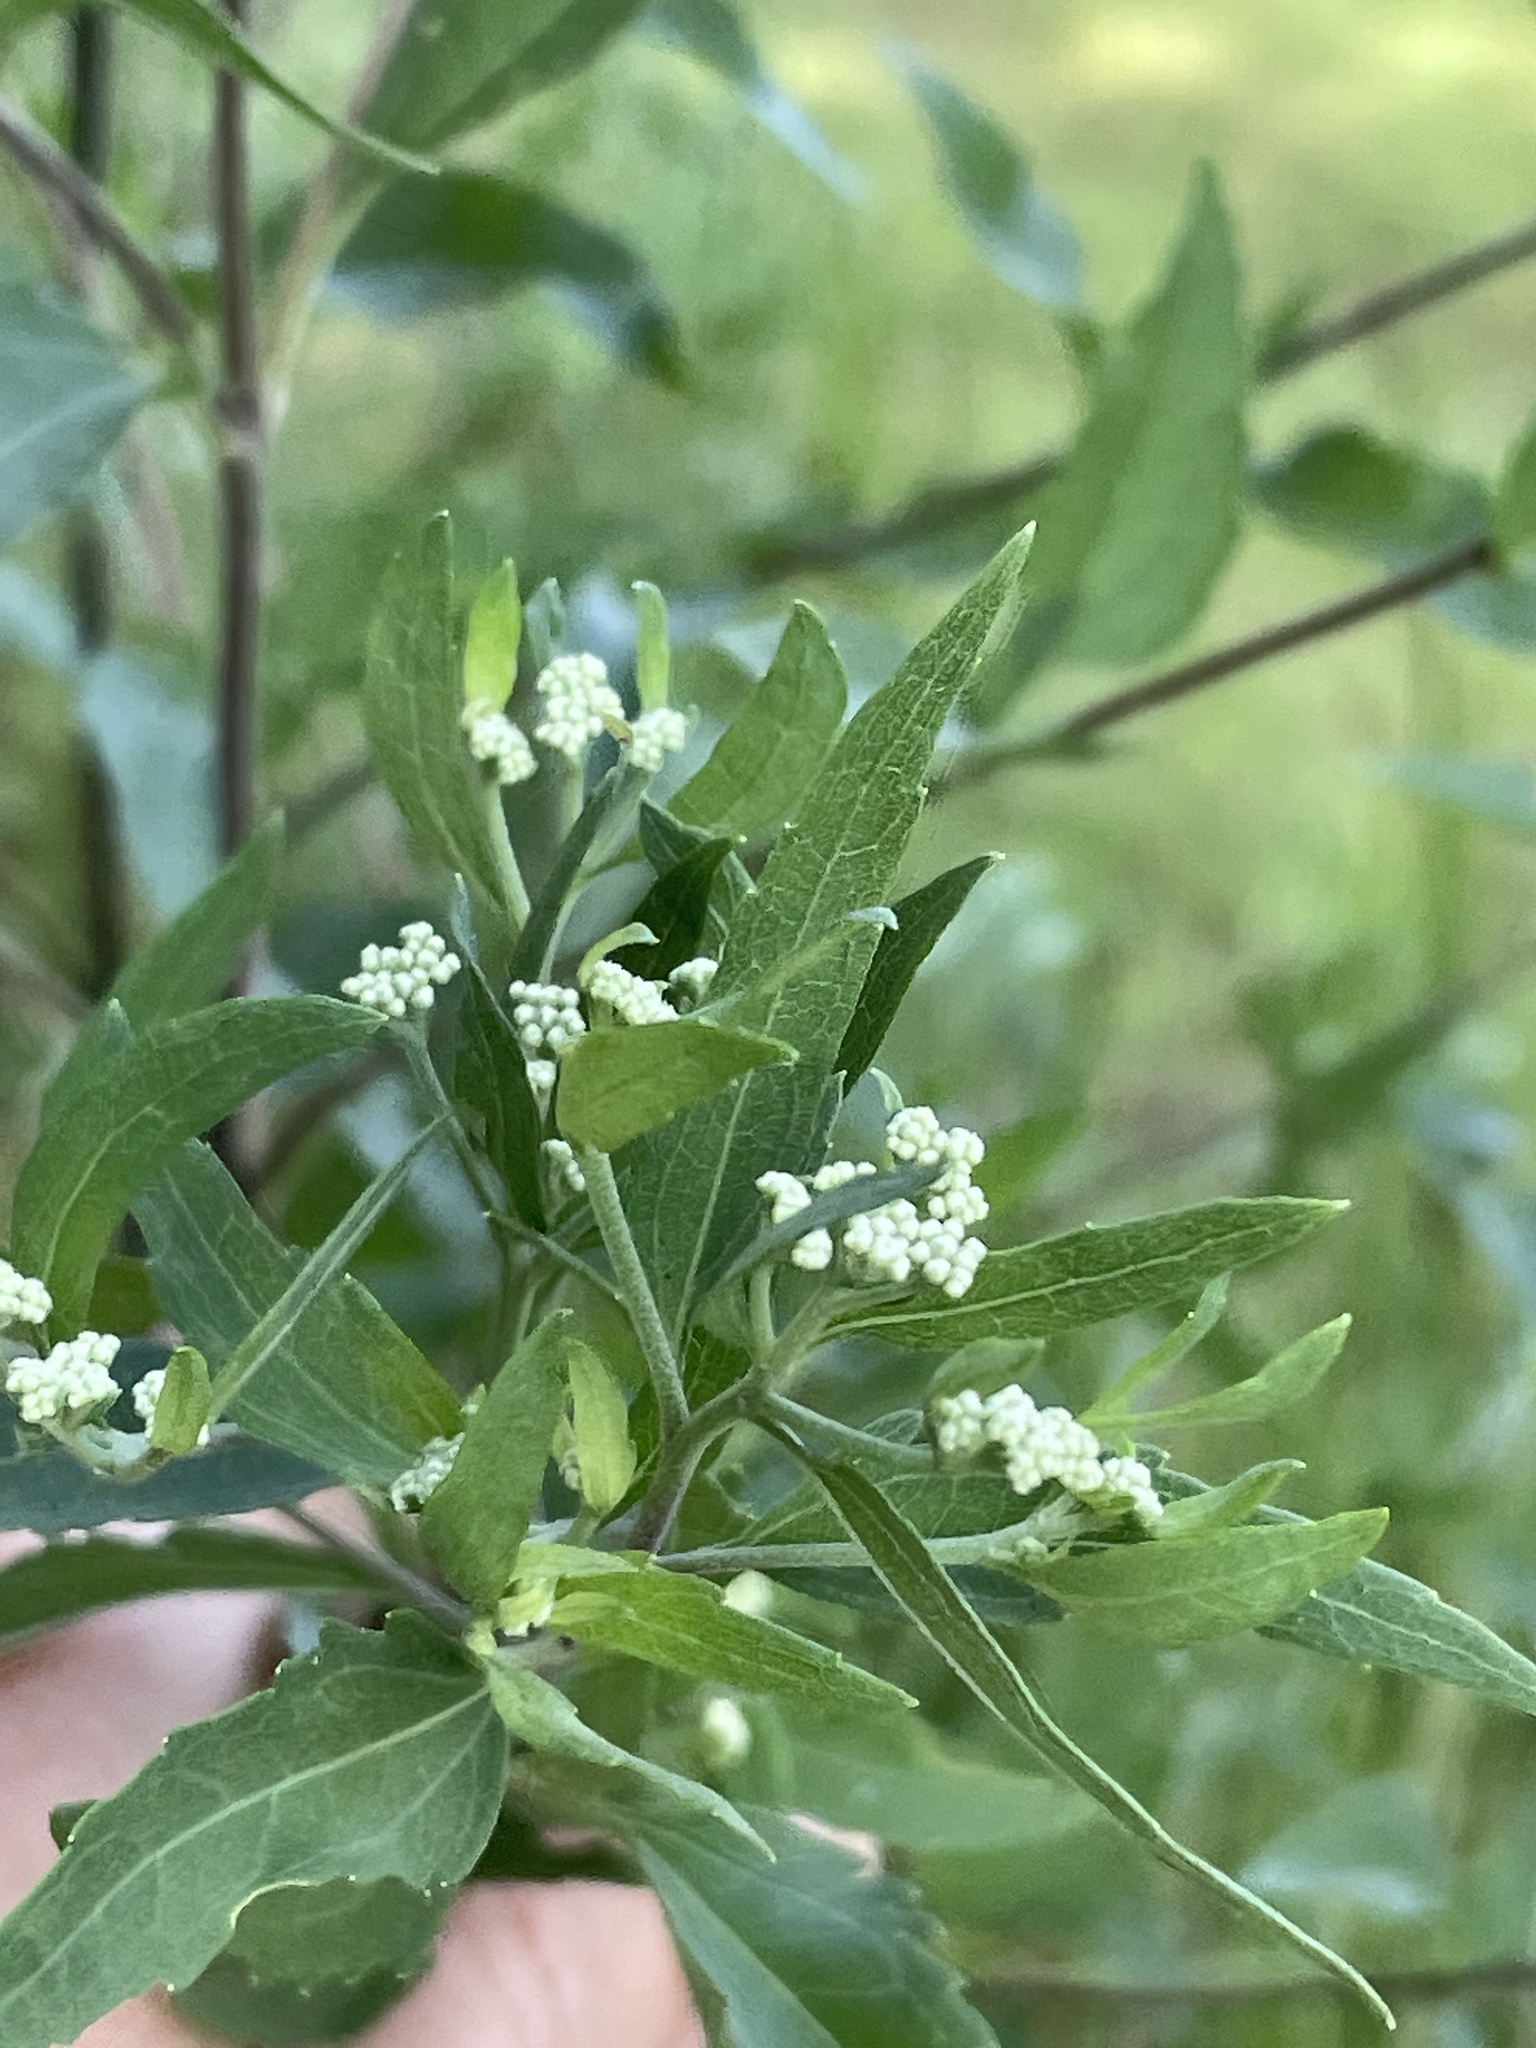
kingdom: Plantae
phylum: Tracheophyta
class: Magnoliopsida
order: Asterales
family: Asteraceae
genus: Eupatorium
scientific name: Eupatorium serotinum
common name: Late boneset
